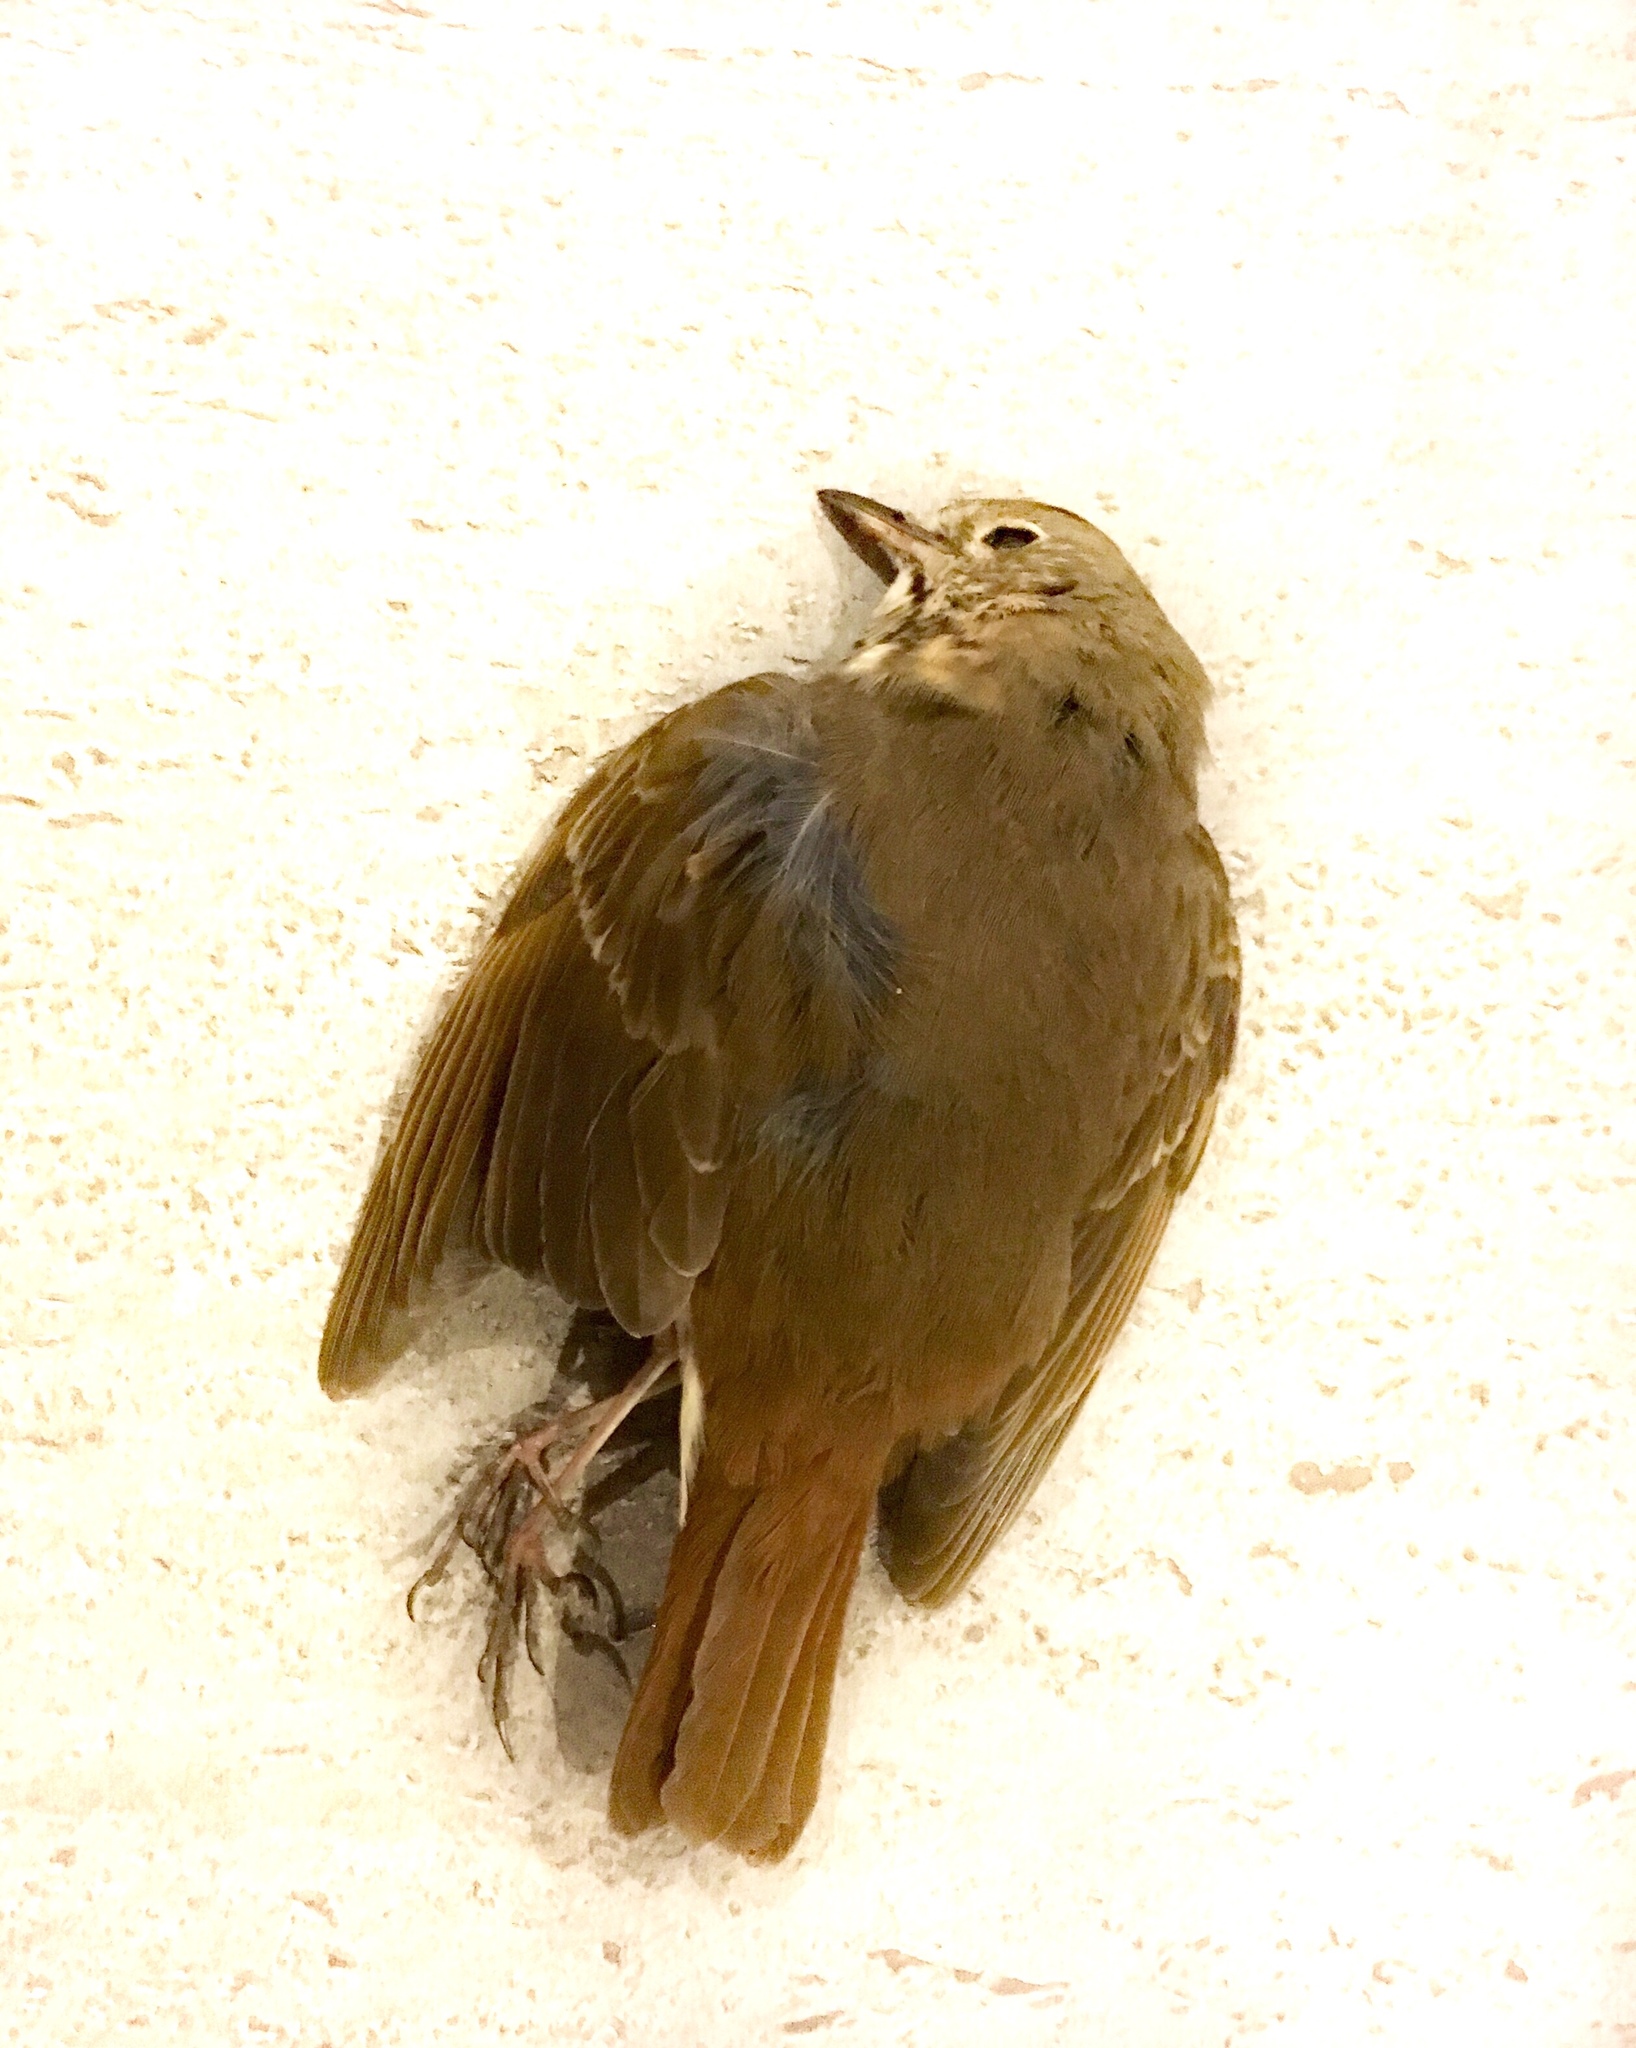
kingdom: Animalia
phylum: Chordata
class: Aves
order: Passeriformes
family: Turdidae
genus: Catharus
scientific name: Catharus guttatus
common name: Hermit thrush
